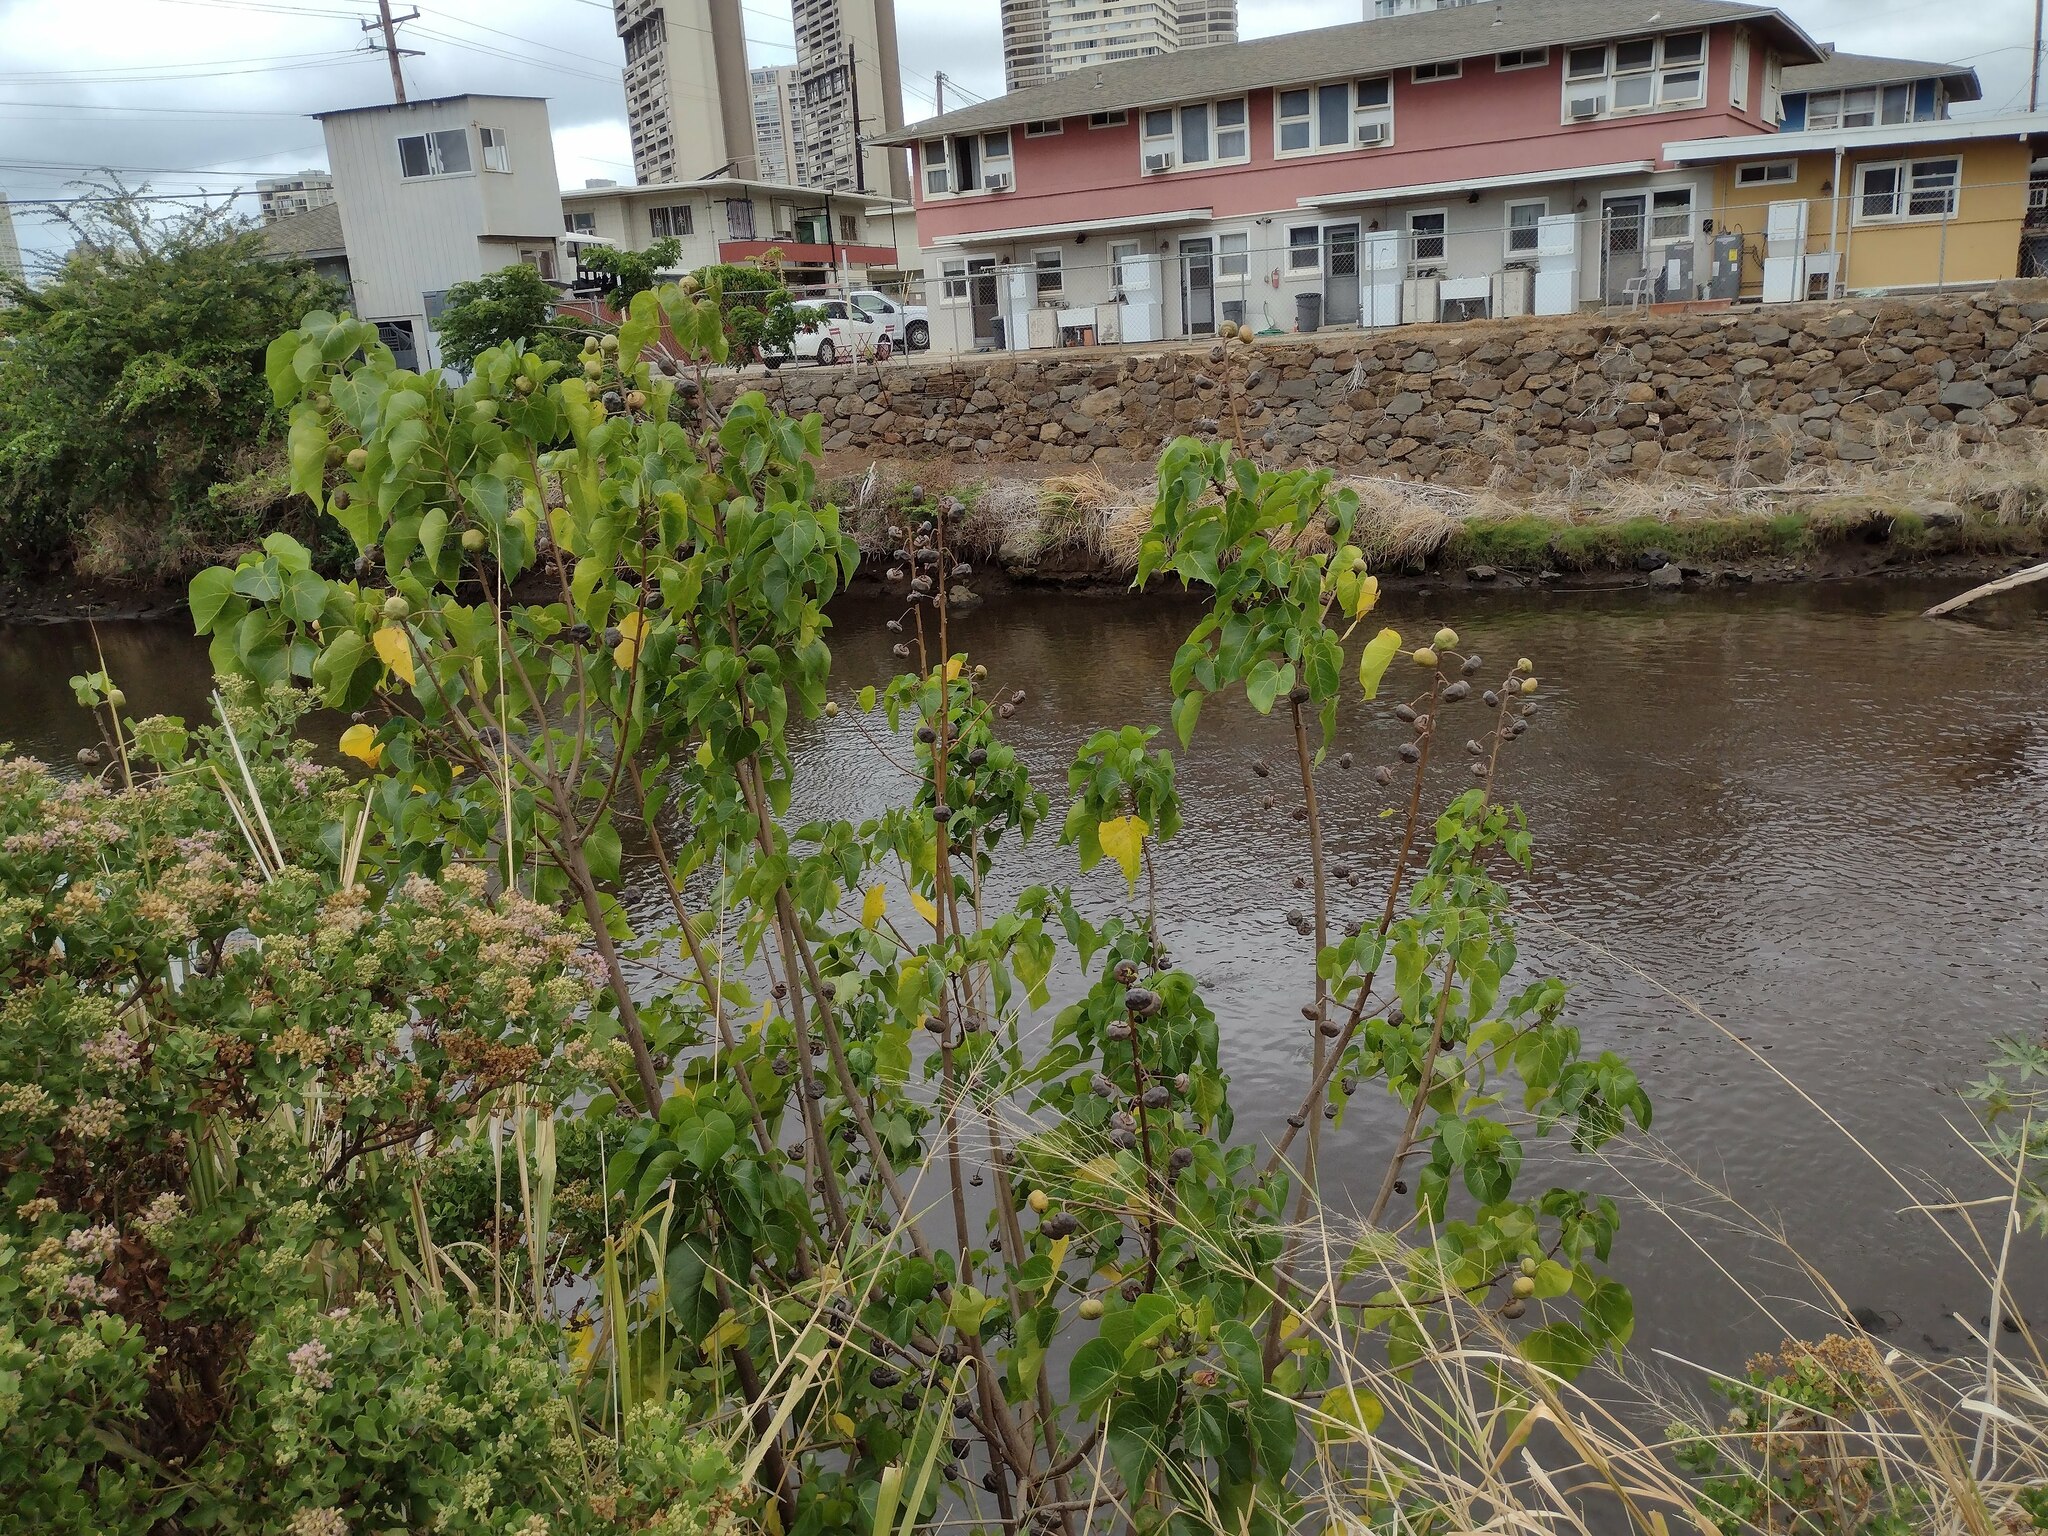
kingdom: Plantae
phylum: Tracheophyta
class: Magnoliopsida
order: Malvales
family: Malvaceae
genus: Thespesia
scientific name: Thespesia populnea
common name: Seaside mahoe
